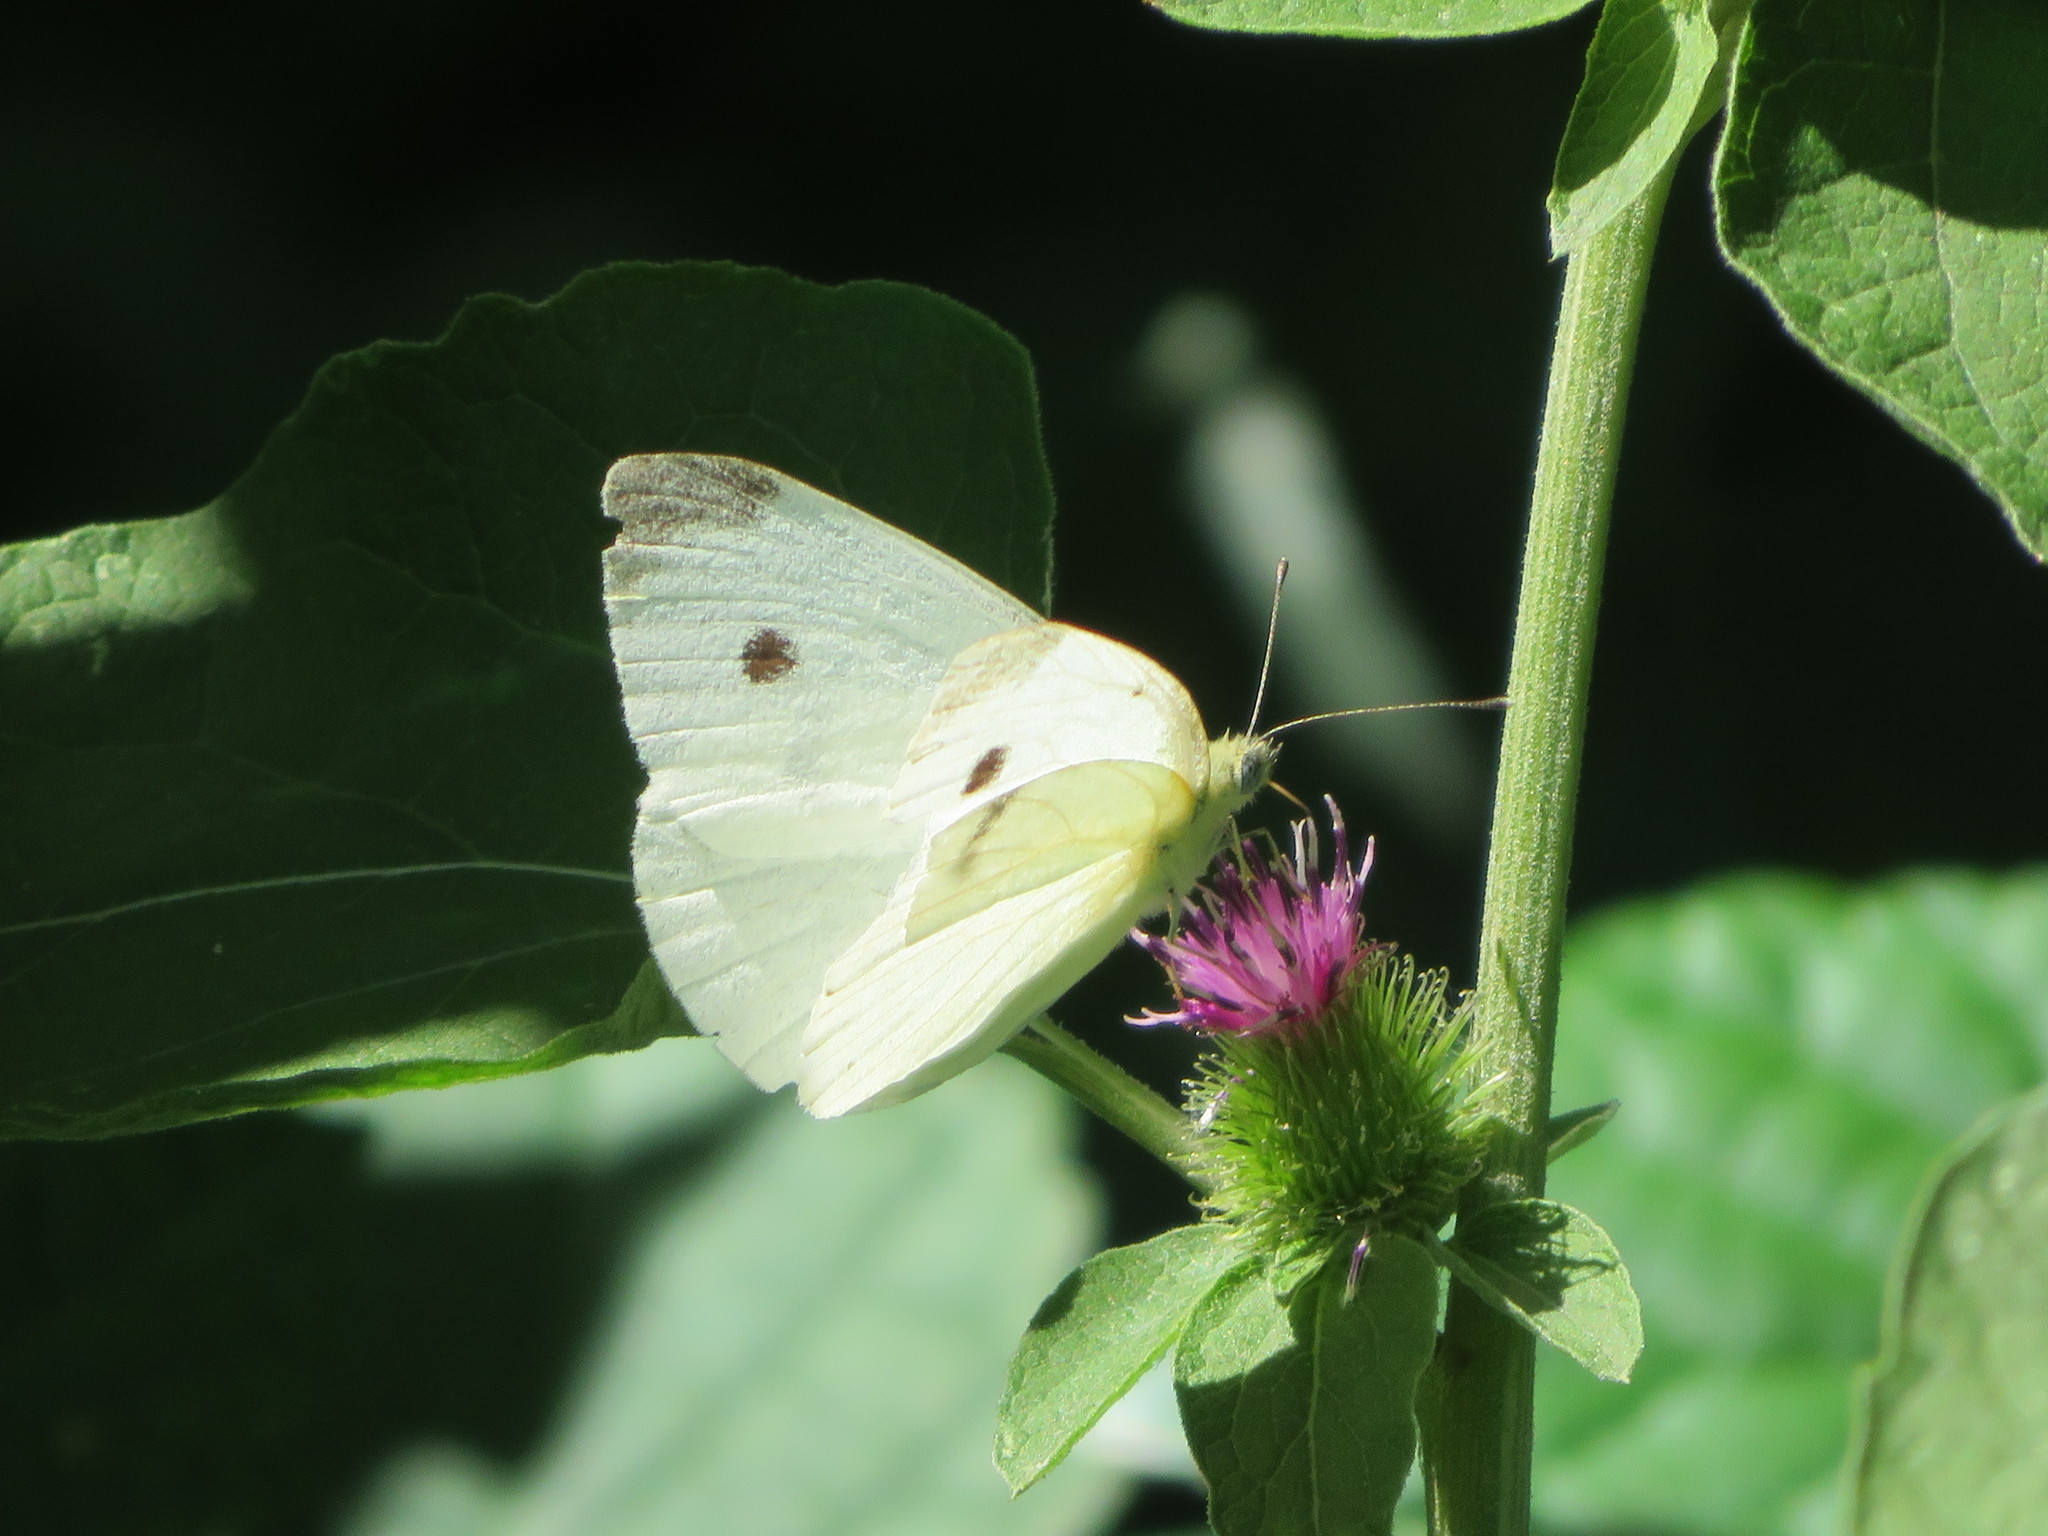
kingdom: Animalia
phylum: Arthropoda
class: Insecta
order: Lepidoptera
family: Pieridae
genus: Pieris
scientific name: Pieris rapae
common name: Small white
